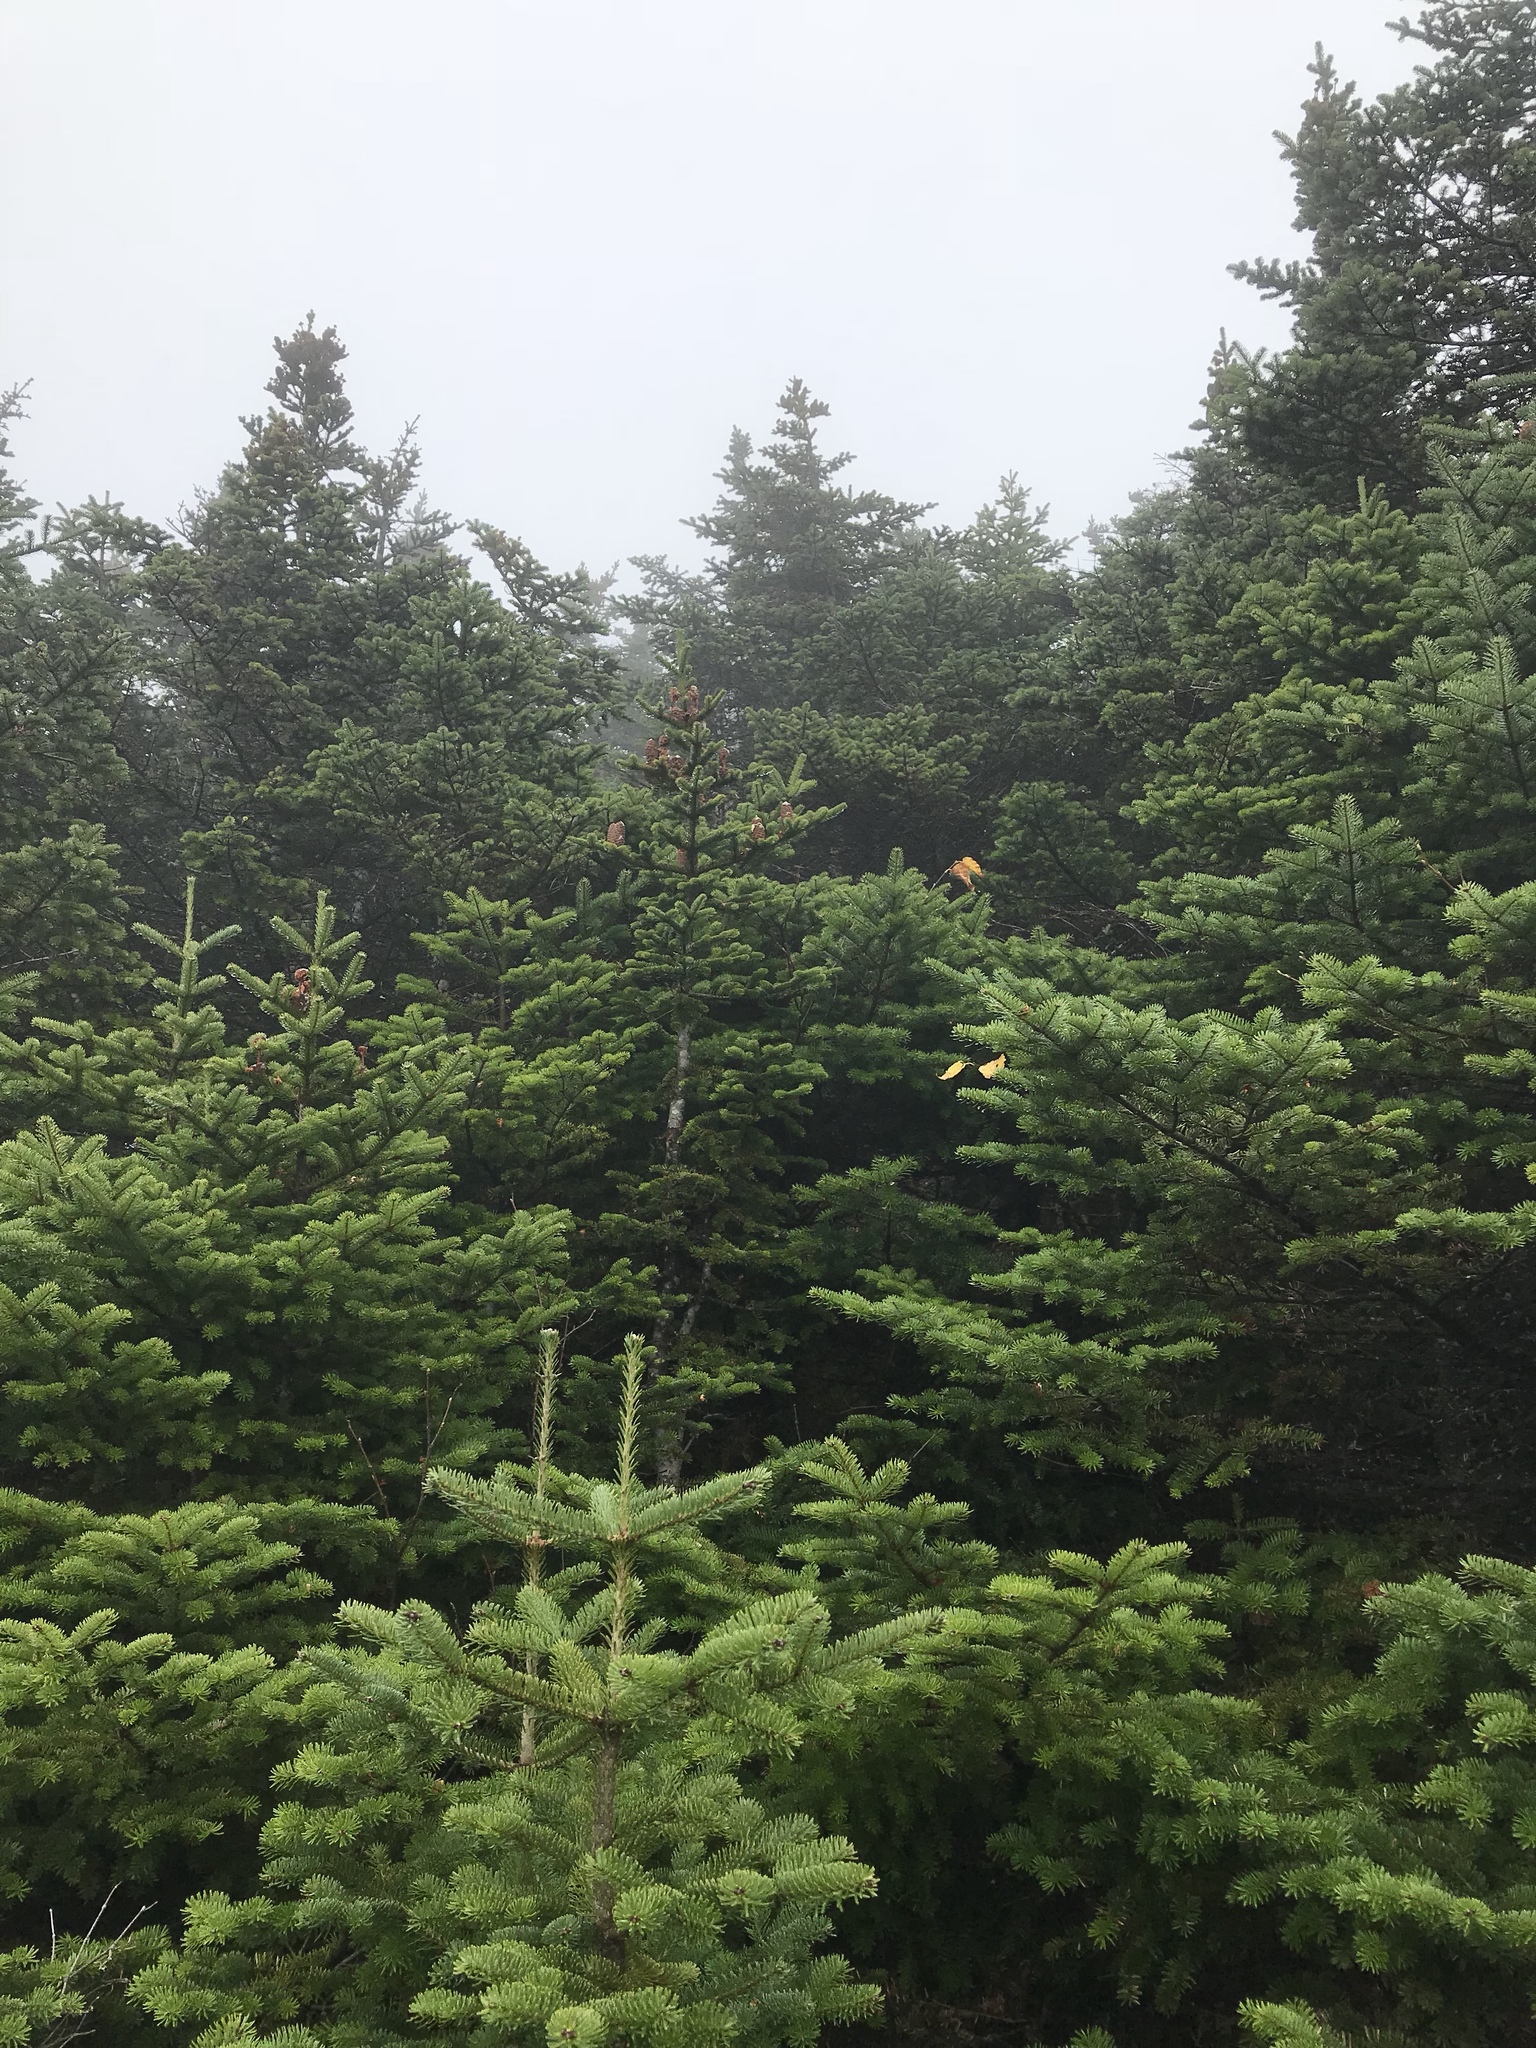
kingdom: Plantae
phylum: Tracheophyta
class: Pinopsida
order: Pinales
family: Pinaceae
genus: Abies
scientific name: Abies balsamea
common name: Balsam fir
